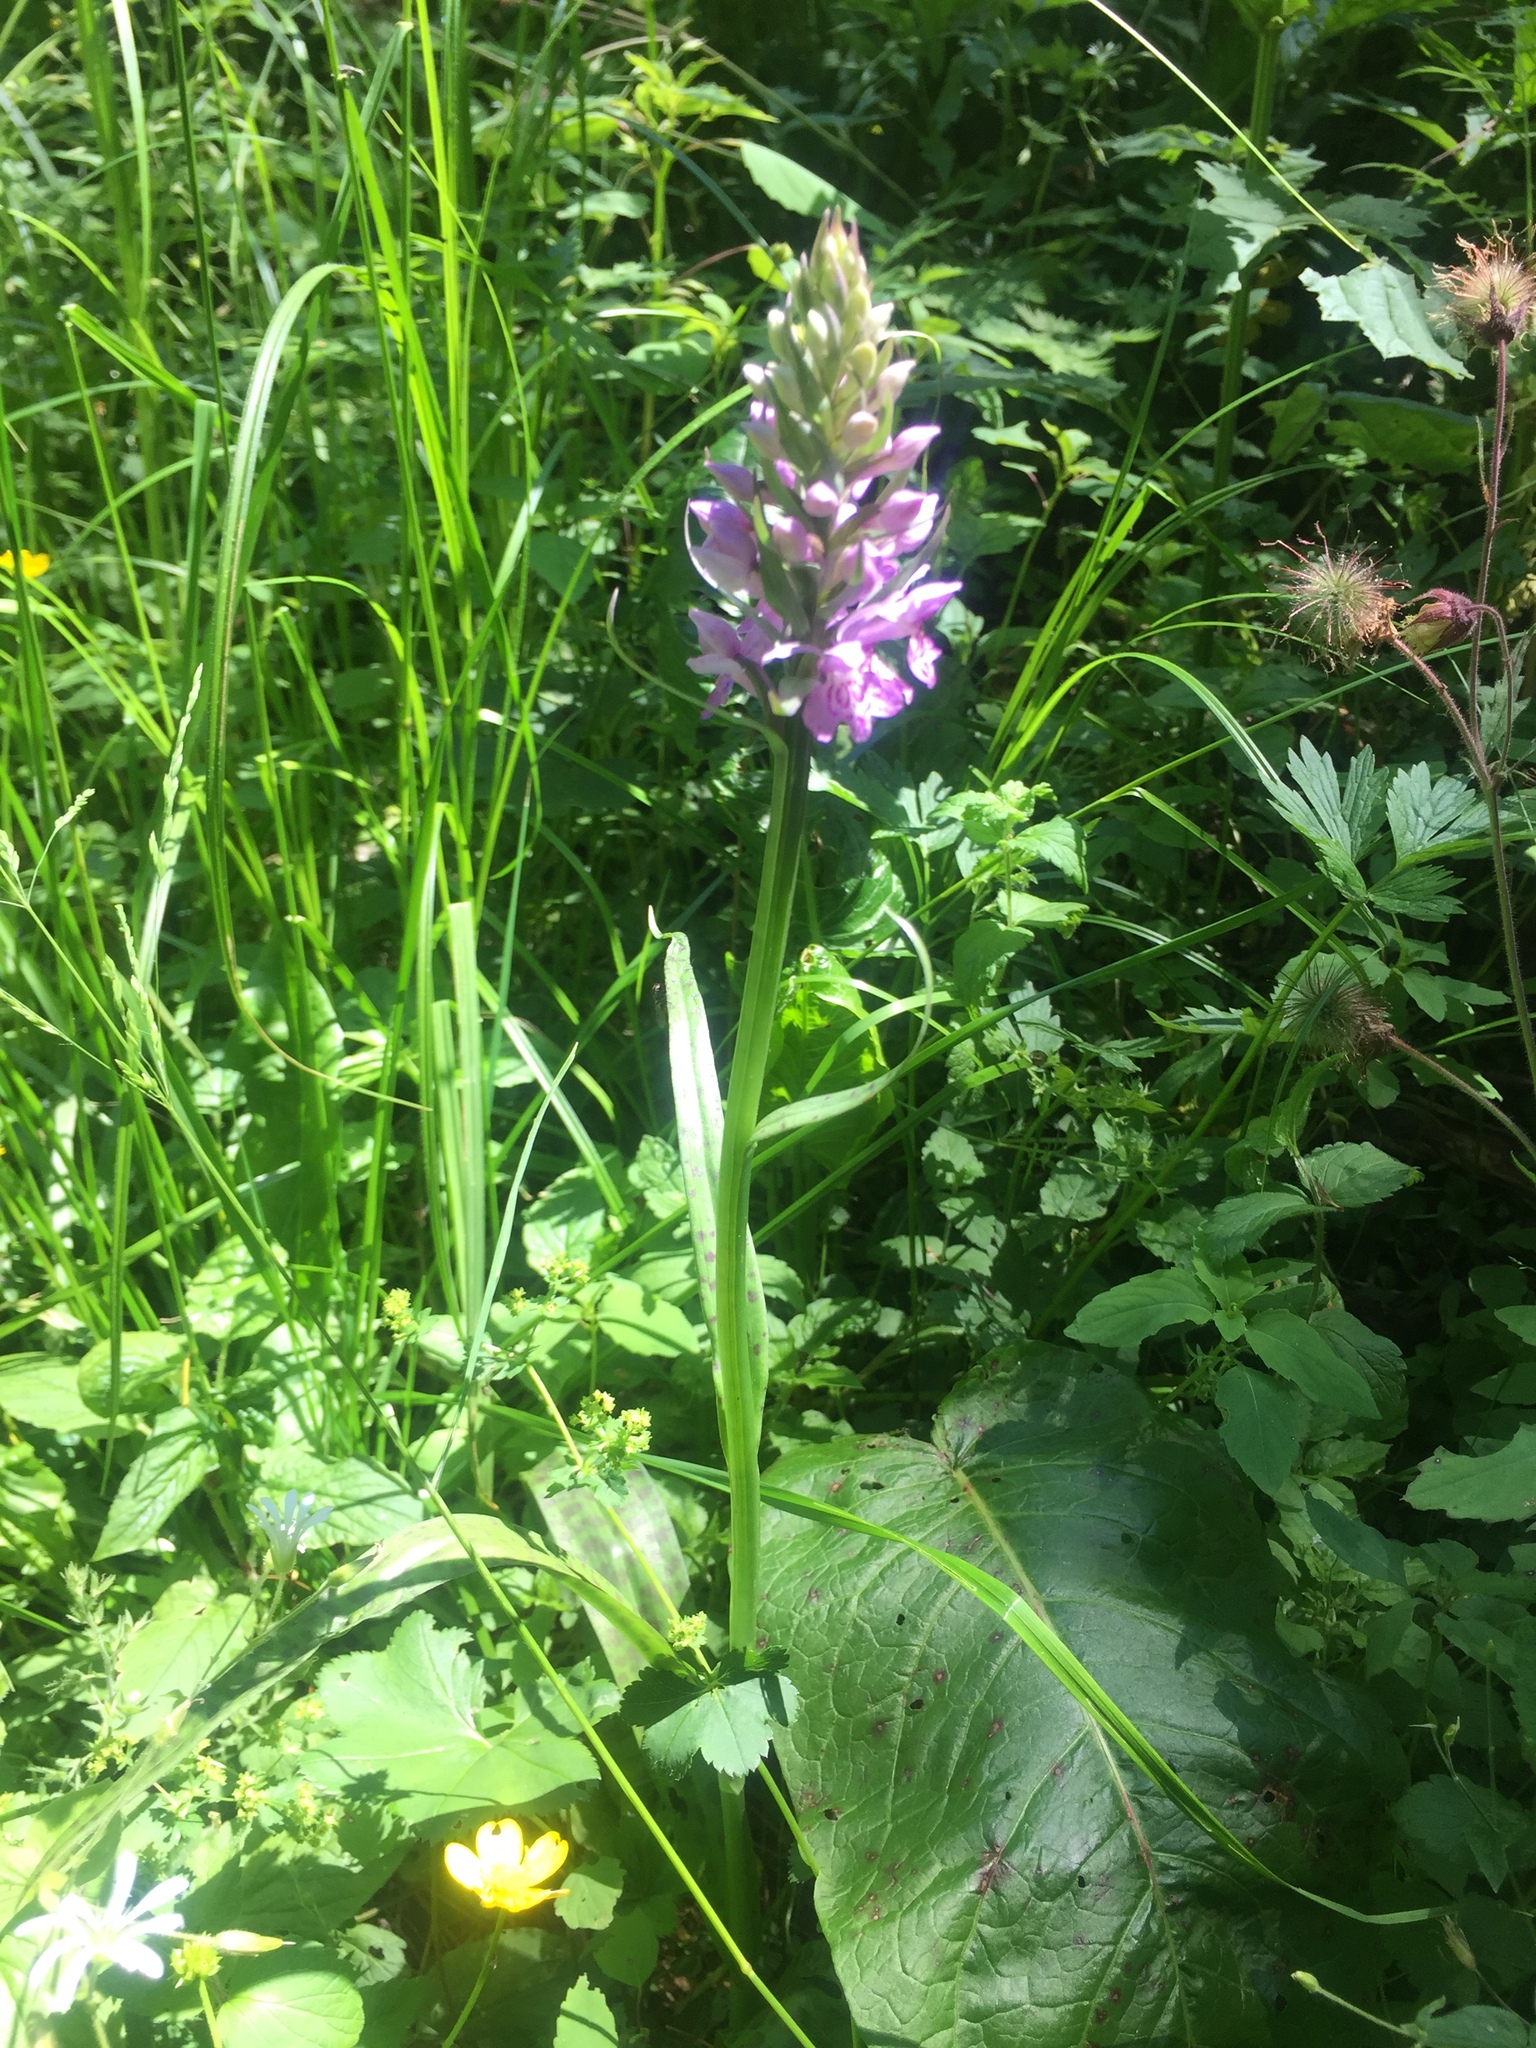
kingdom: Plantae
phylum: Tracheophyta
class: Liliopsida
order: Asparagales
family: Orchidaceae
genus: Dactylorhiza
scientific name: Dactylorhiza majalis
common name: Marsh orchid
